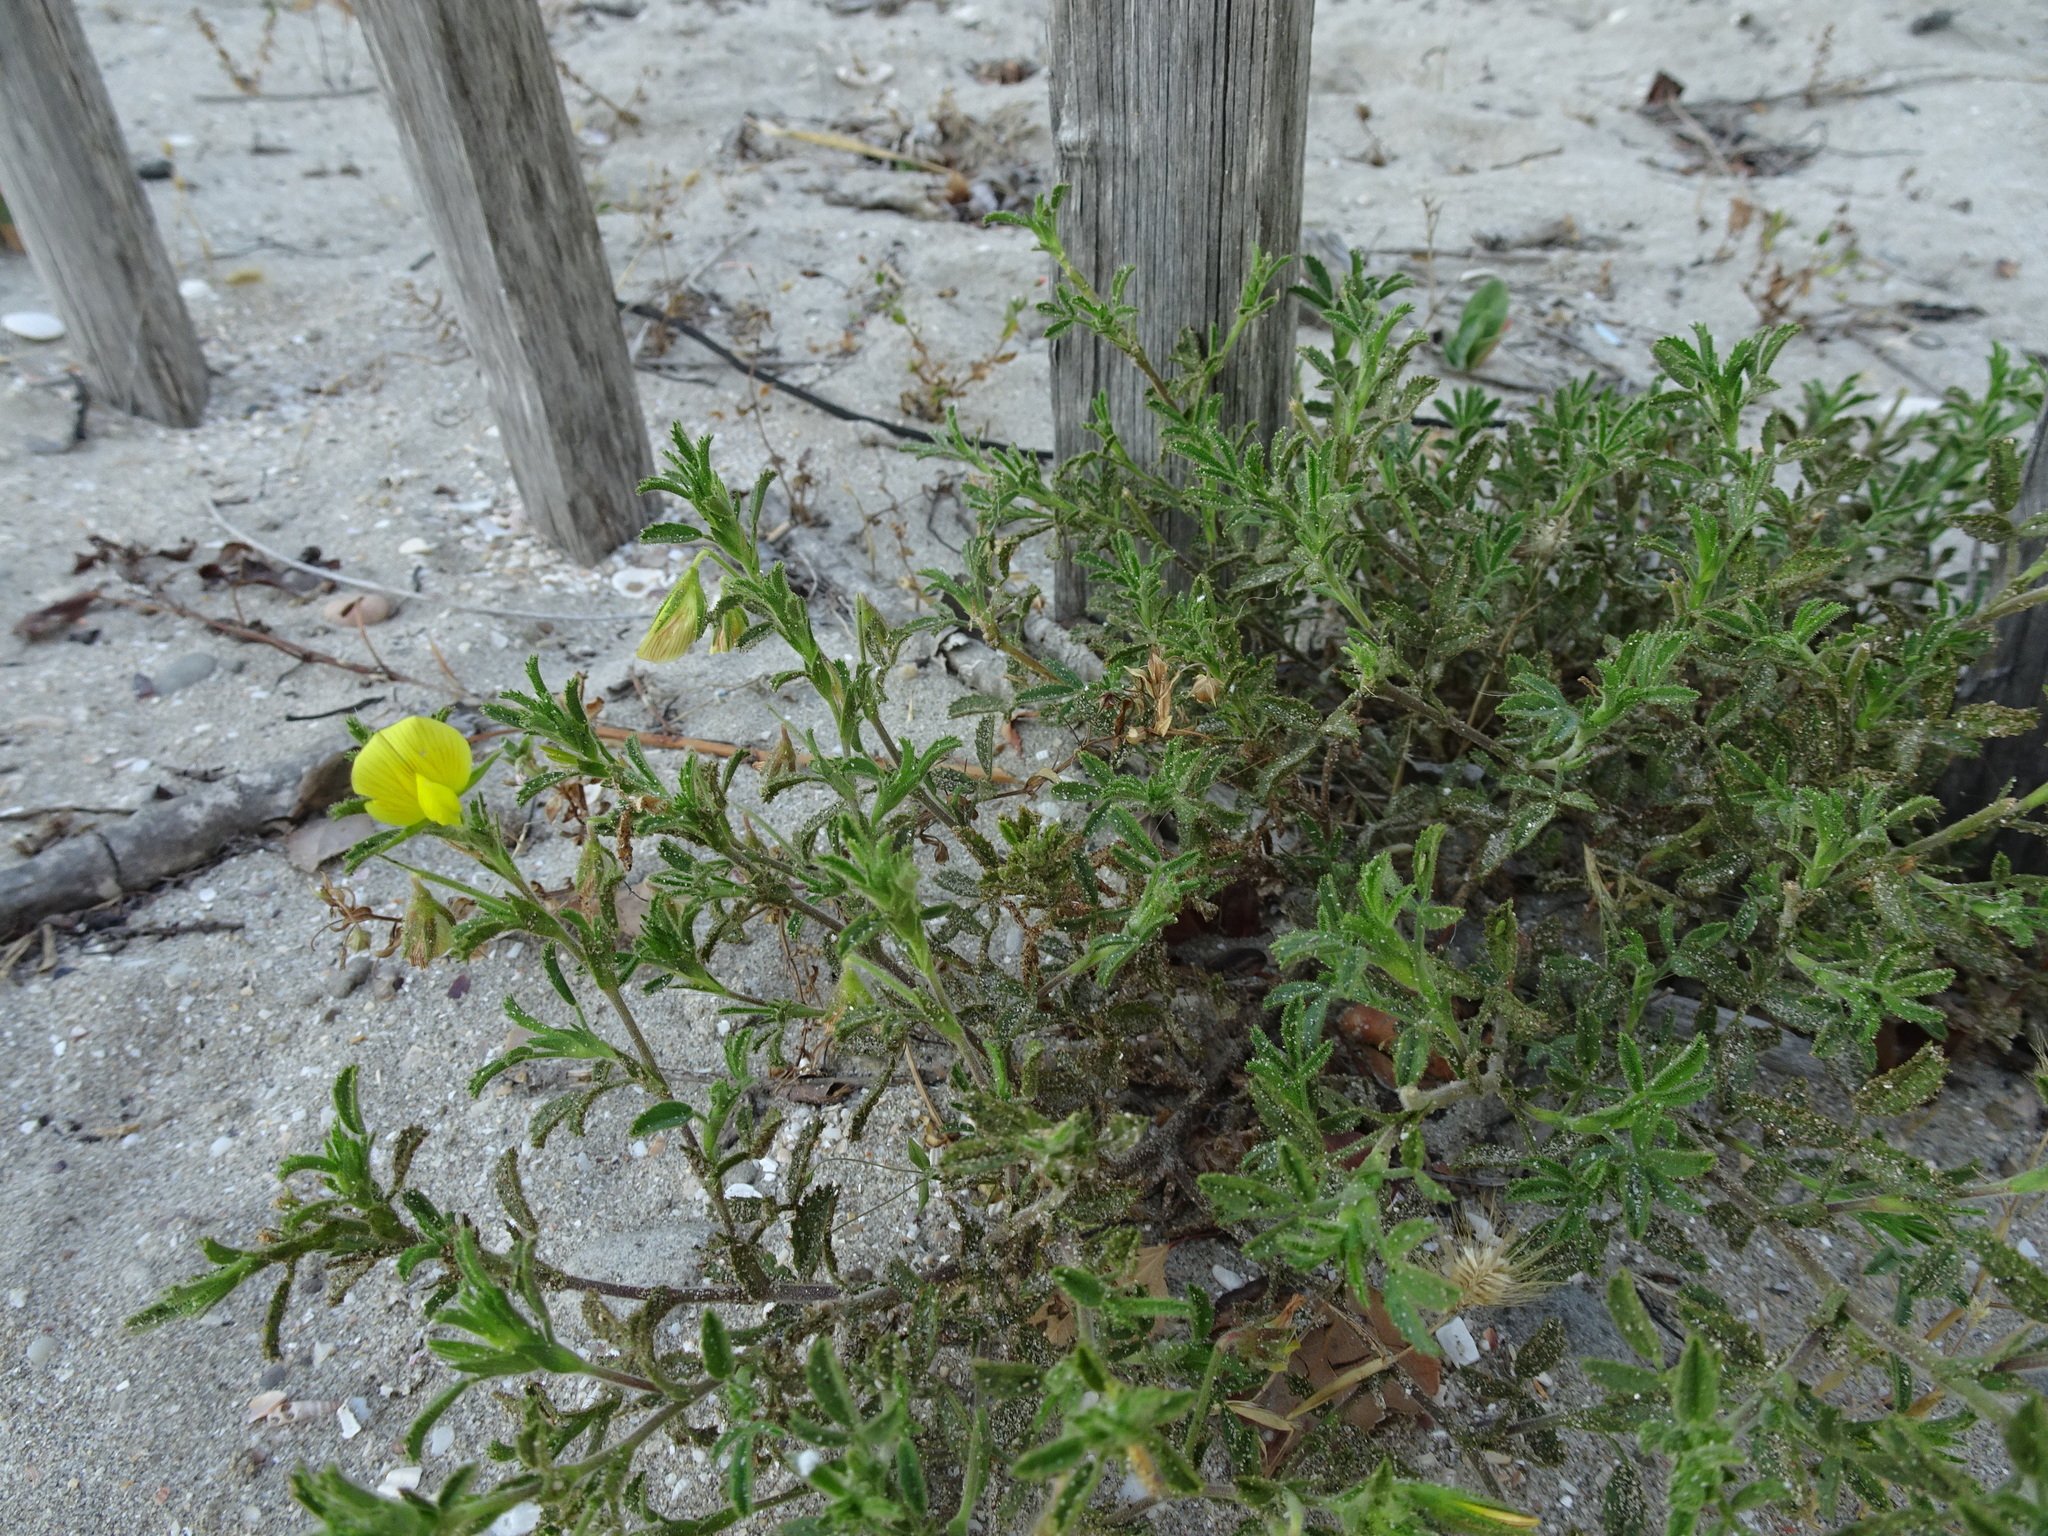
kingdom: Plantae
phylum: Tracheophyta
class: Magnoliopsida
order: Fabales
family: Fabaceae
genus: Ononis
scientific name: Ononis natrix
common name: Yellow restharrow
